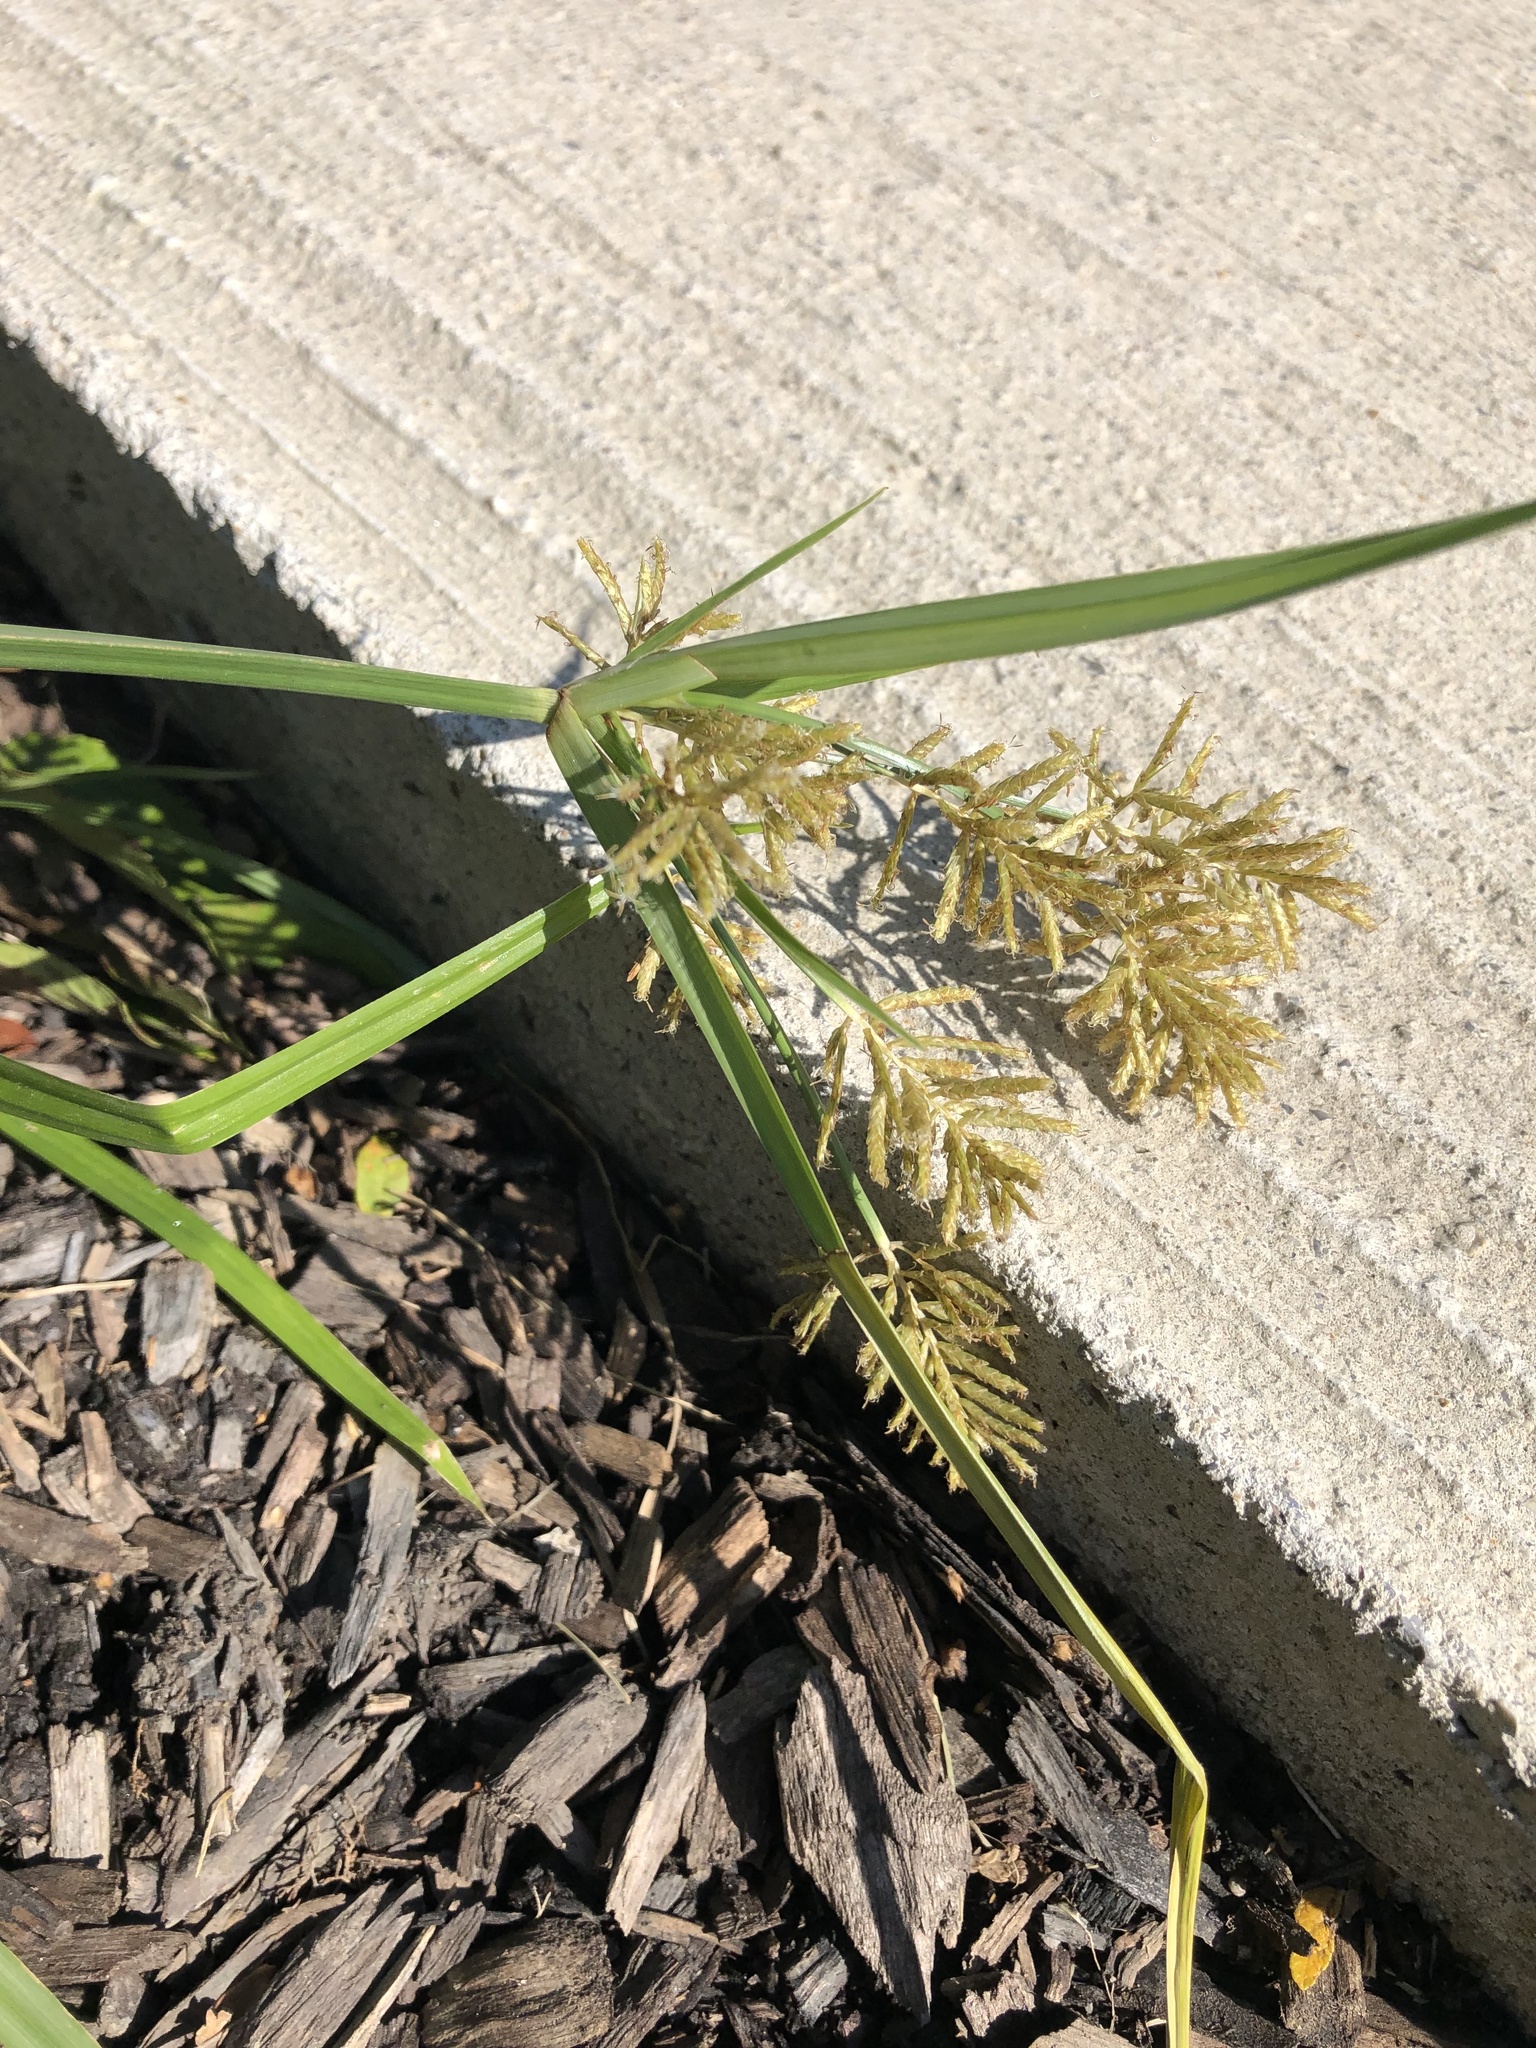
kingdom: Plantae
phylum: Tracheophyta
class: Liliopsida
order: Poales
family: Cyperaceae
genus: Cyperus
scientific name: Cyperus esculentus
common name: Yellow nutsedge
